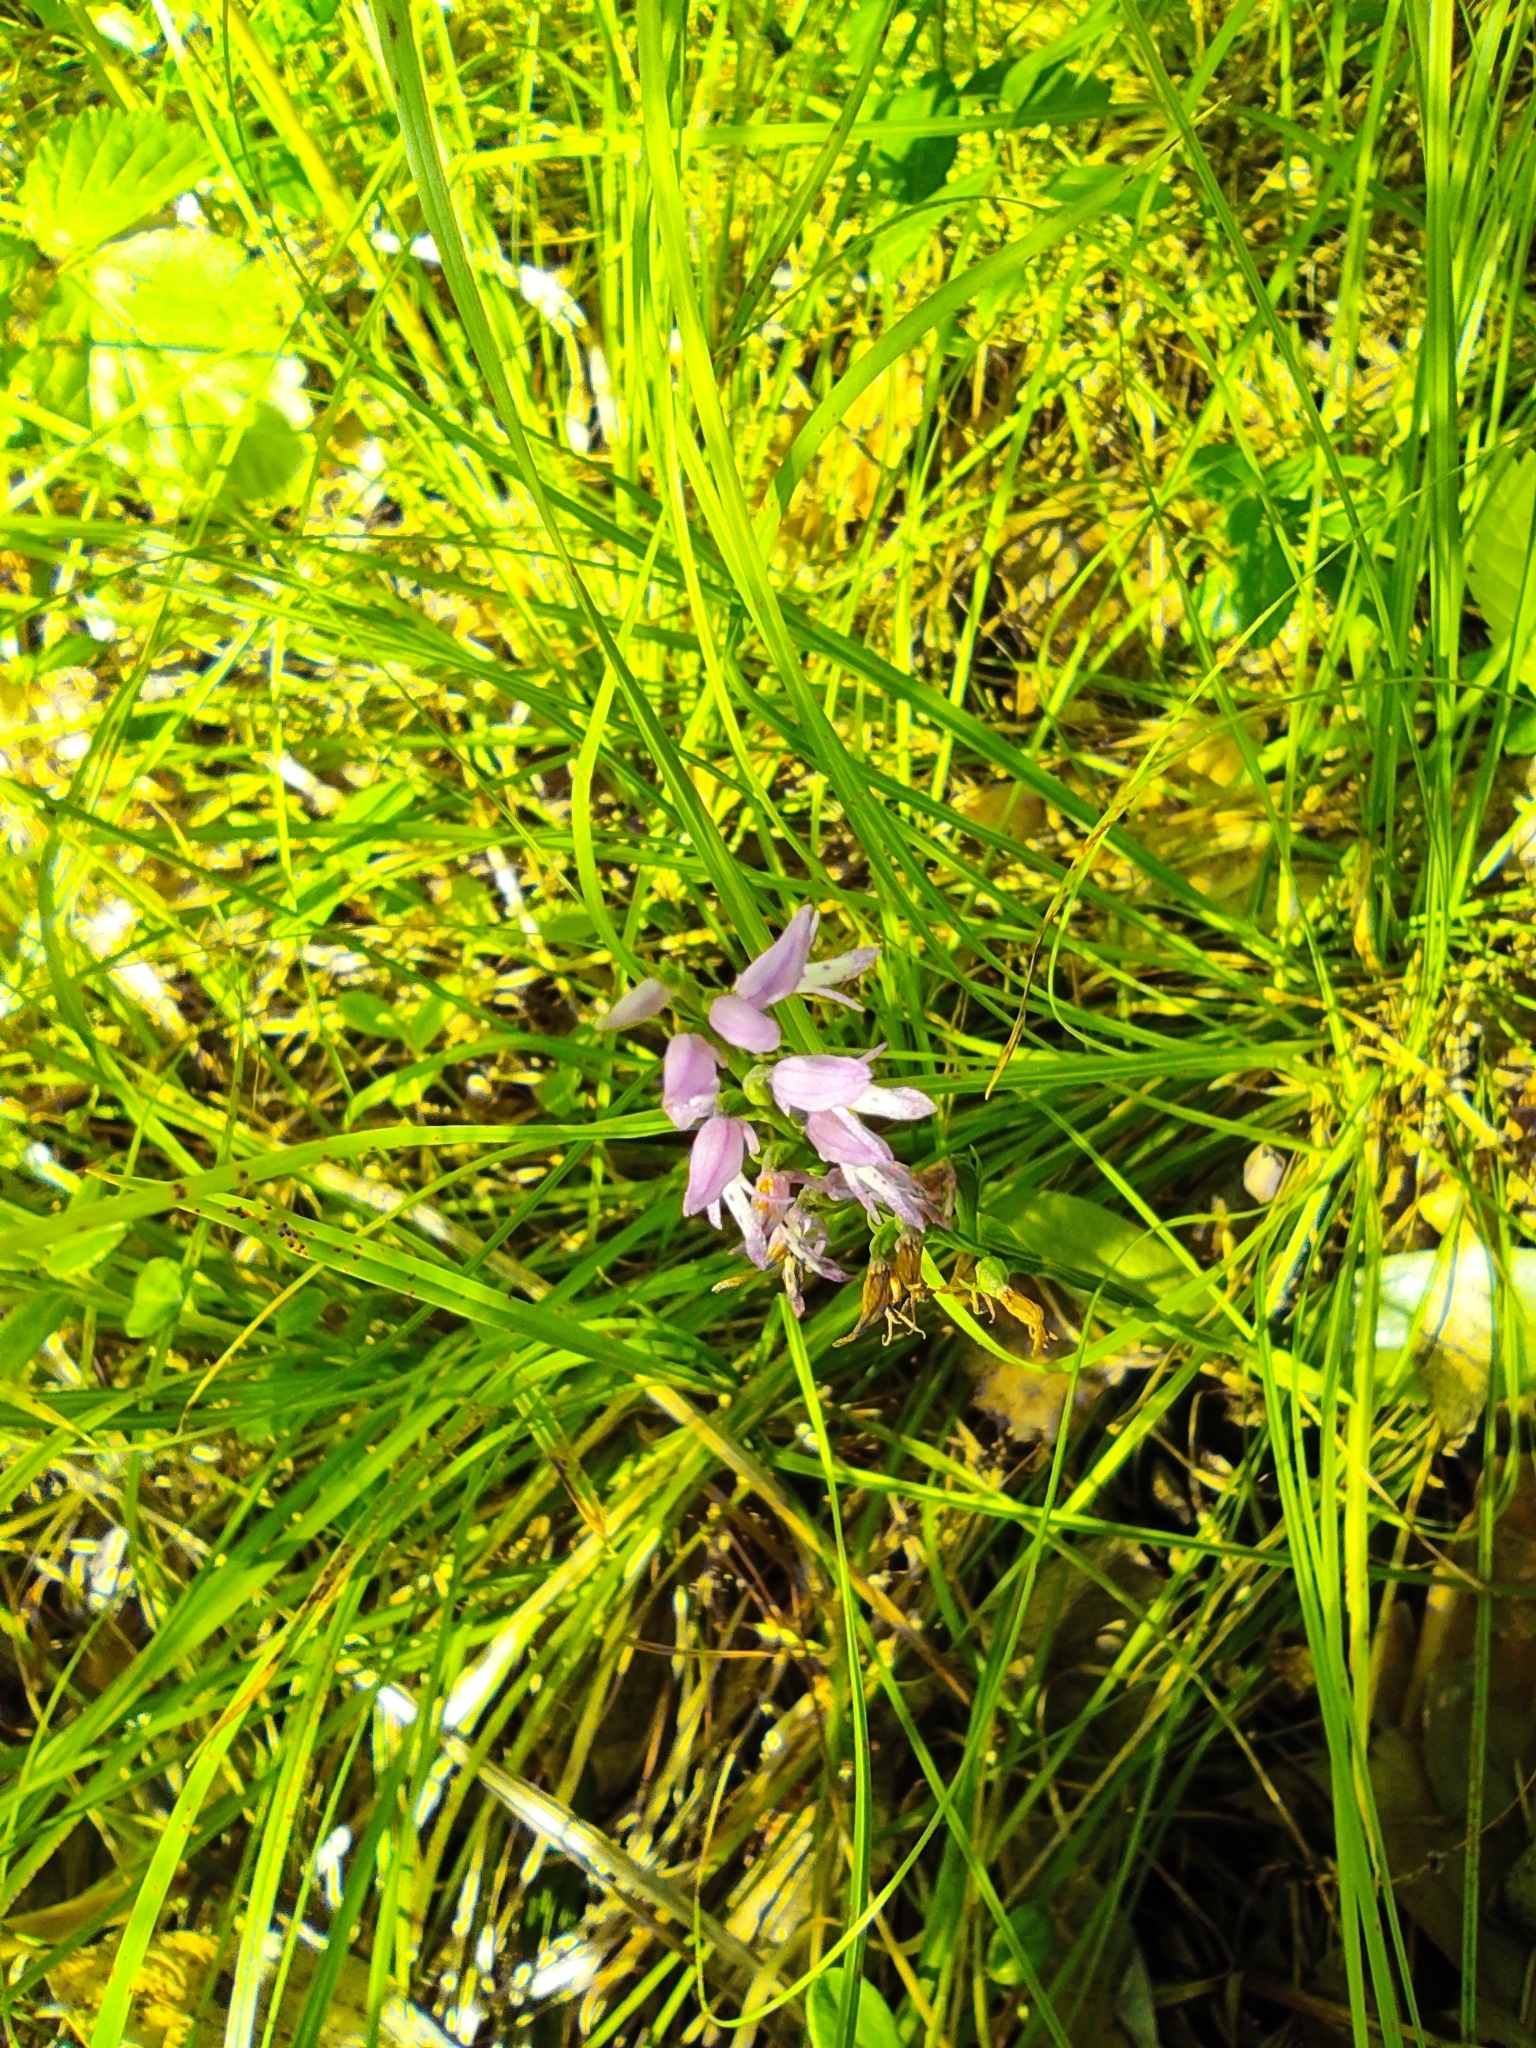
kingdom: Plantae
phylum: Tracheophyta
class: Liliopsida
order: Asparagales
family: Orchidaceae
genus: Hemipilia
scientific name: Hemipilia cucullata
